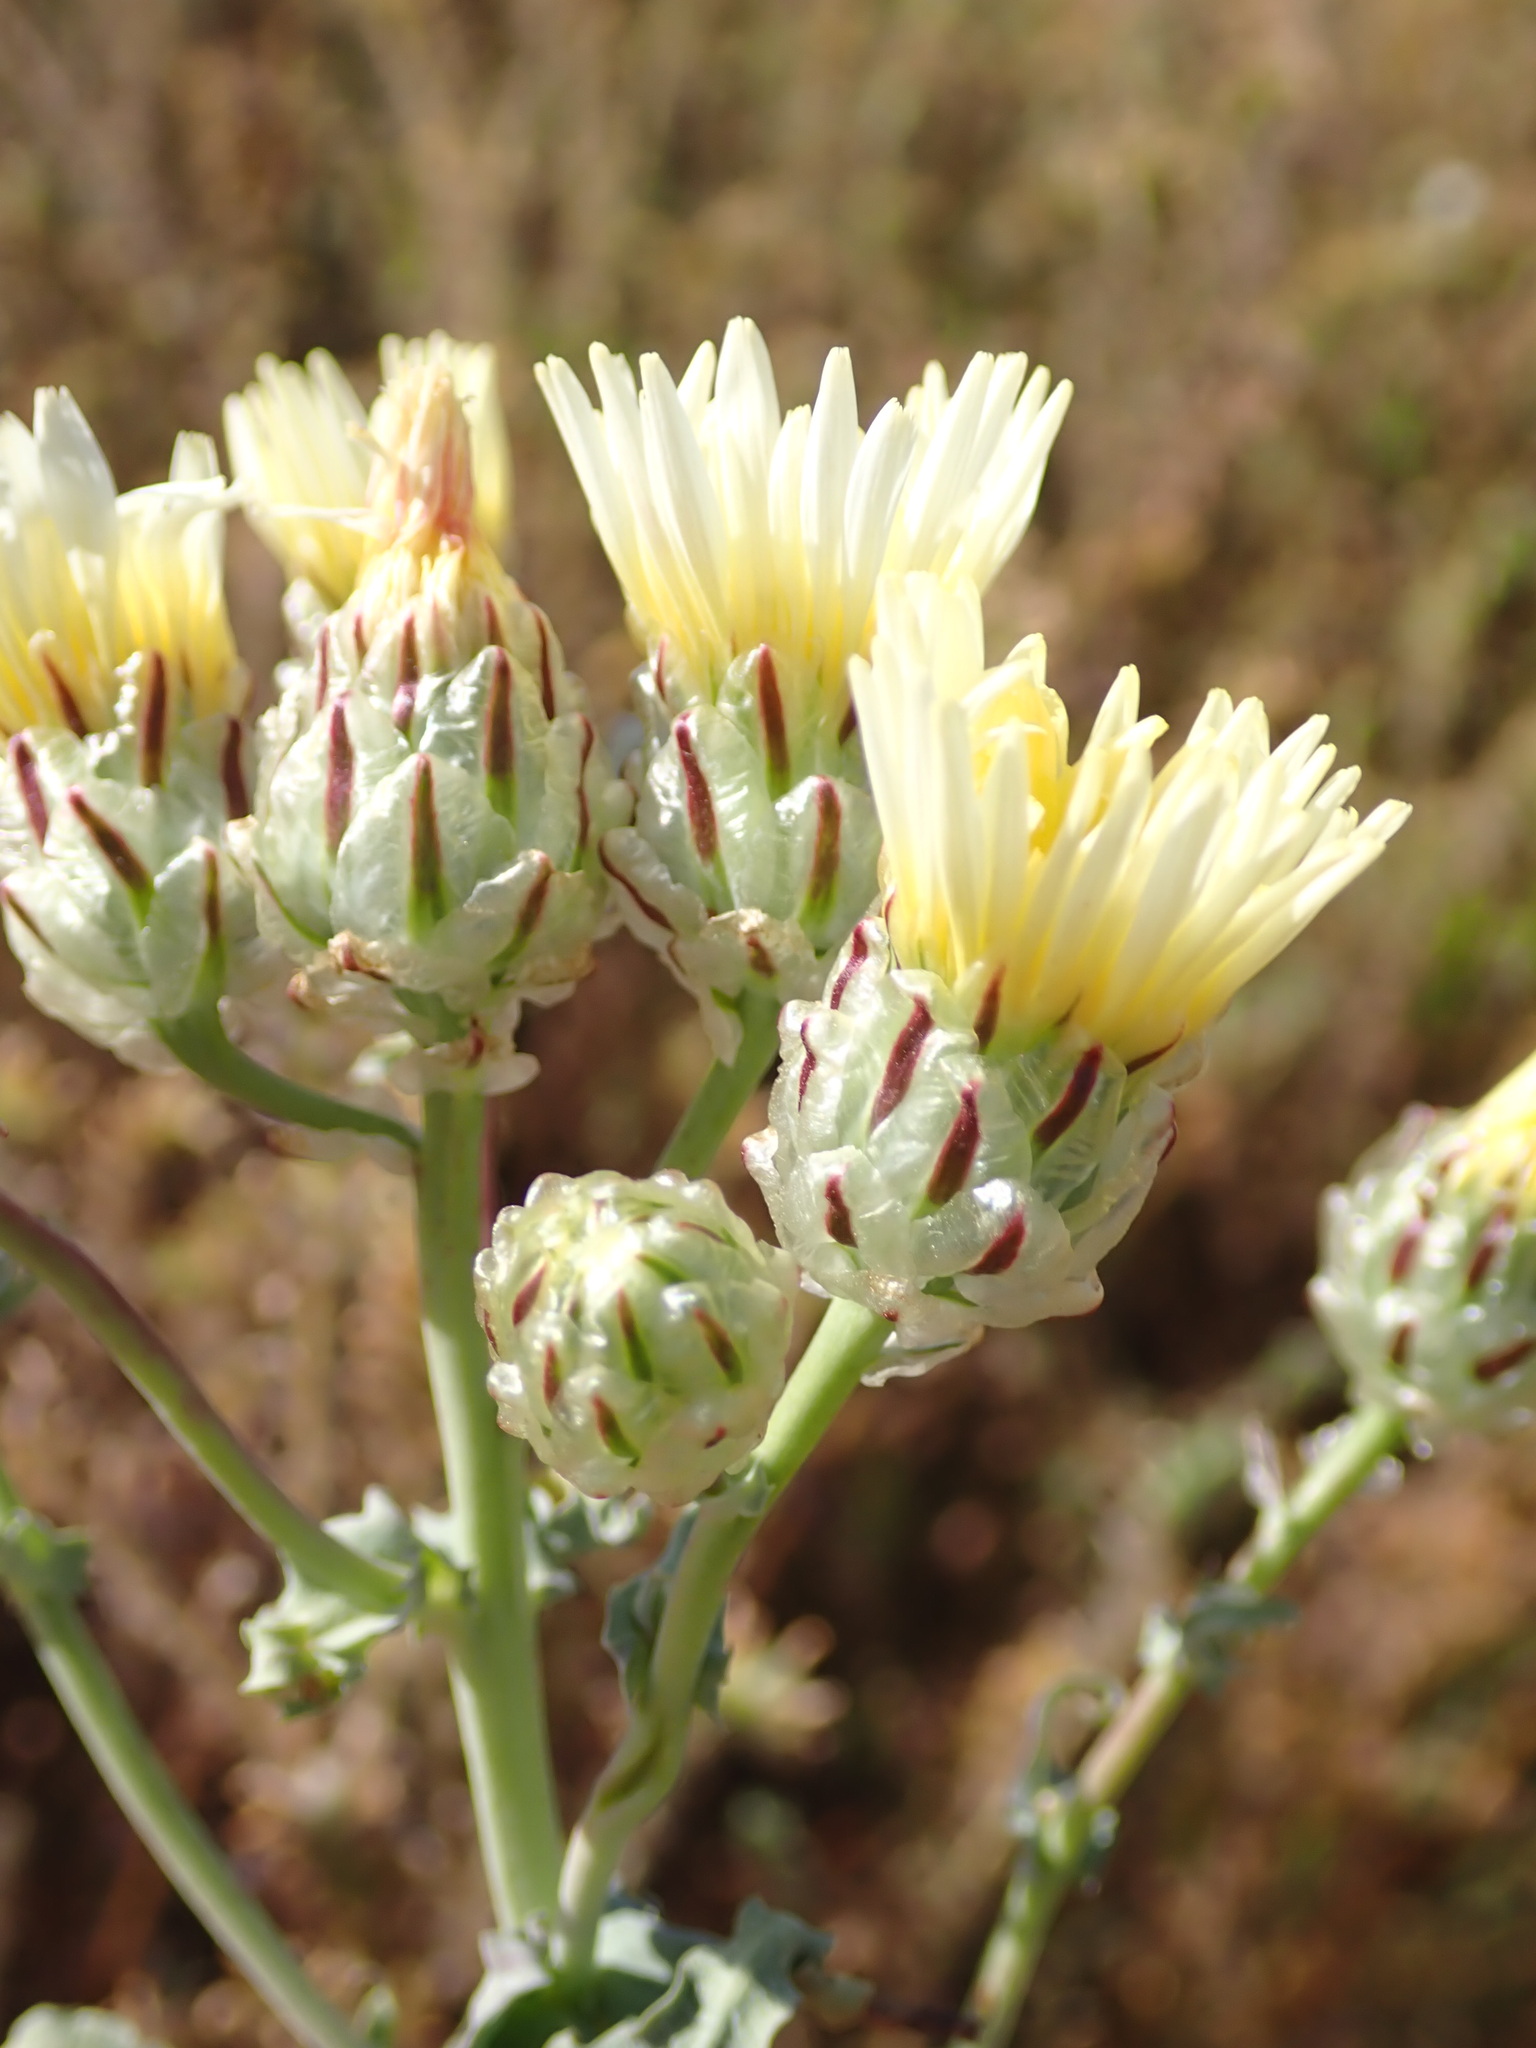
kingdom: Plantae
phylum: Tracheophyta
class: Magnoliopsida
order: Asterales
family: Asteraceae
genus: Malacothrix
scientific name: Malacothrix coulteri
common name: Snake's-head
